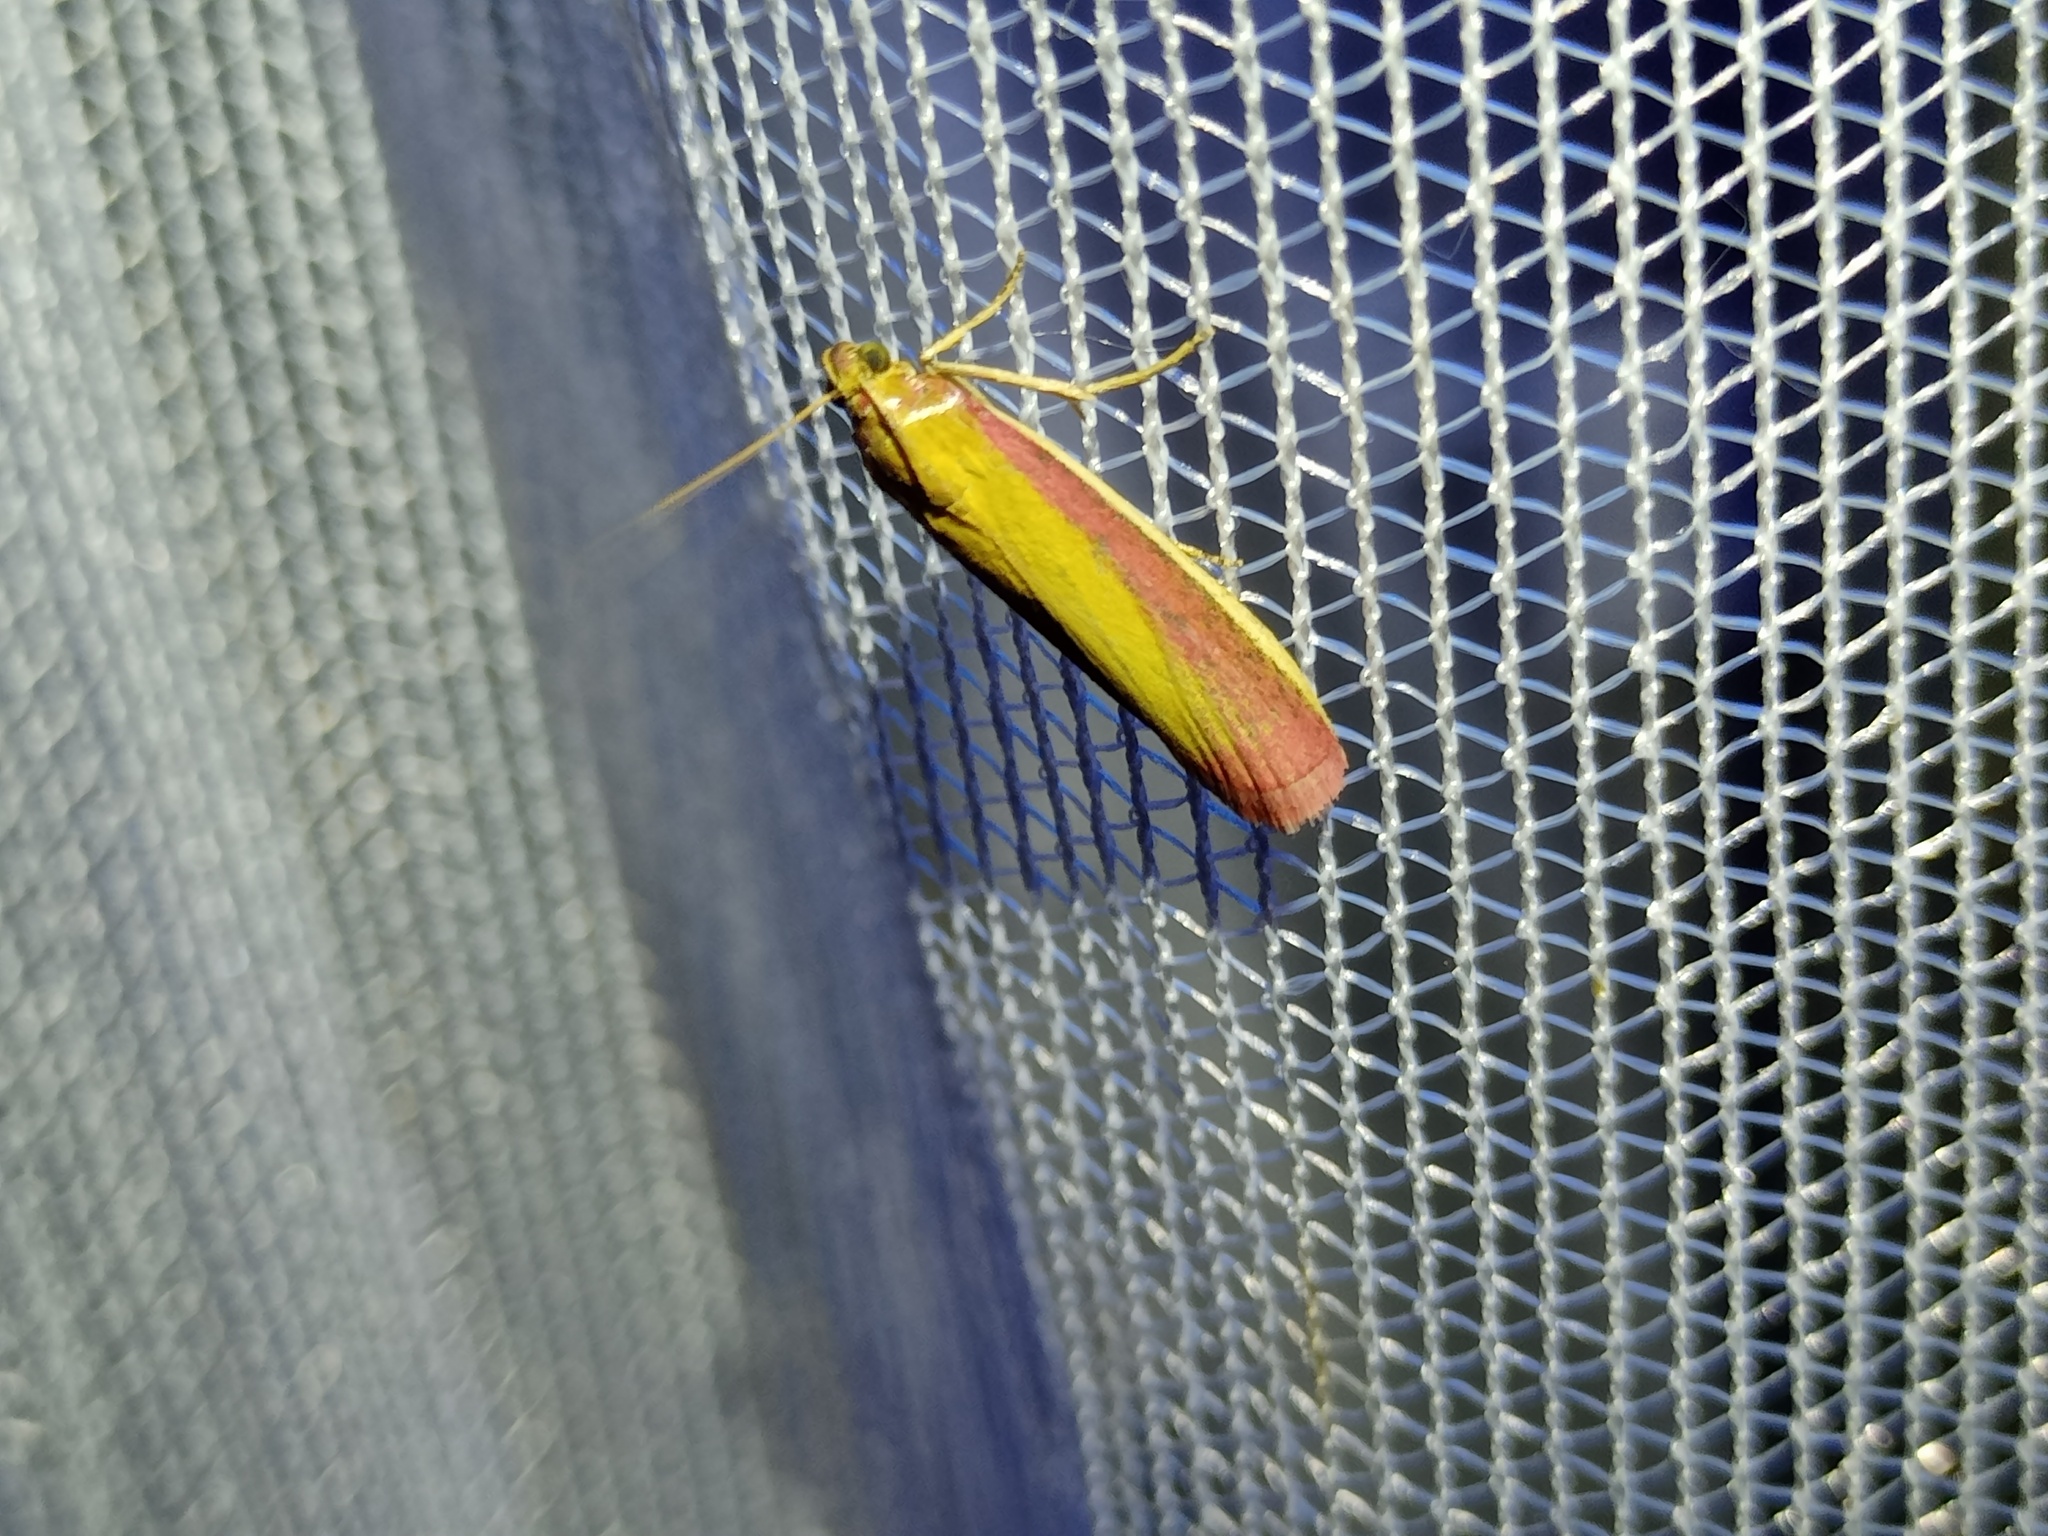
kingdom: Animalia
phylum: Arthropoda
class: Insecta
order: Lepidoptera
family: Pyralidae
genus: Oncocera
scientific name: Oncocera semirubella
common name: Rosy-striped knot-horn
